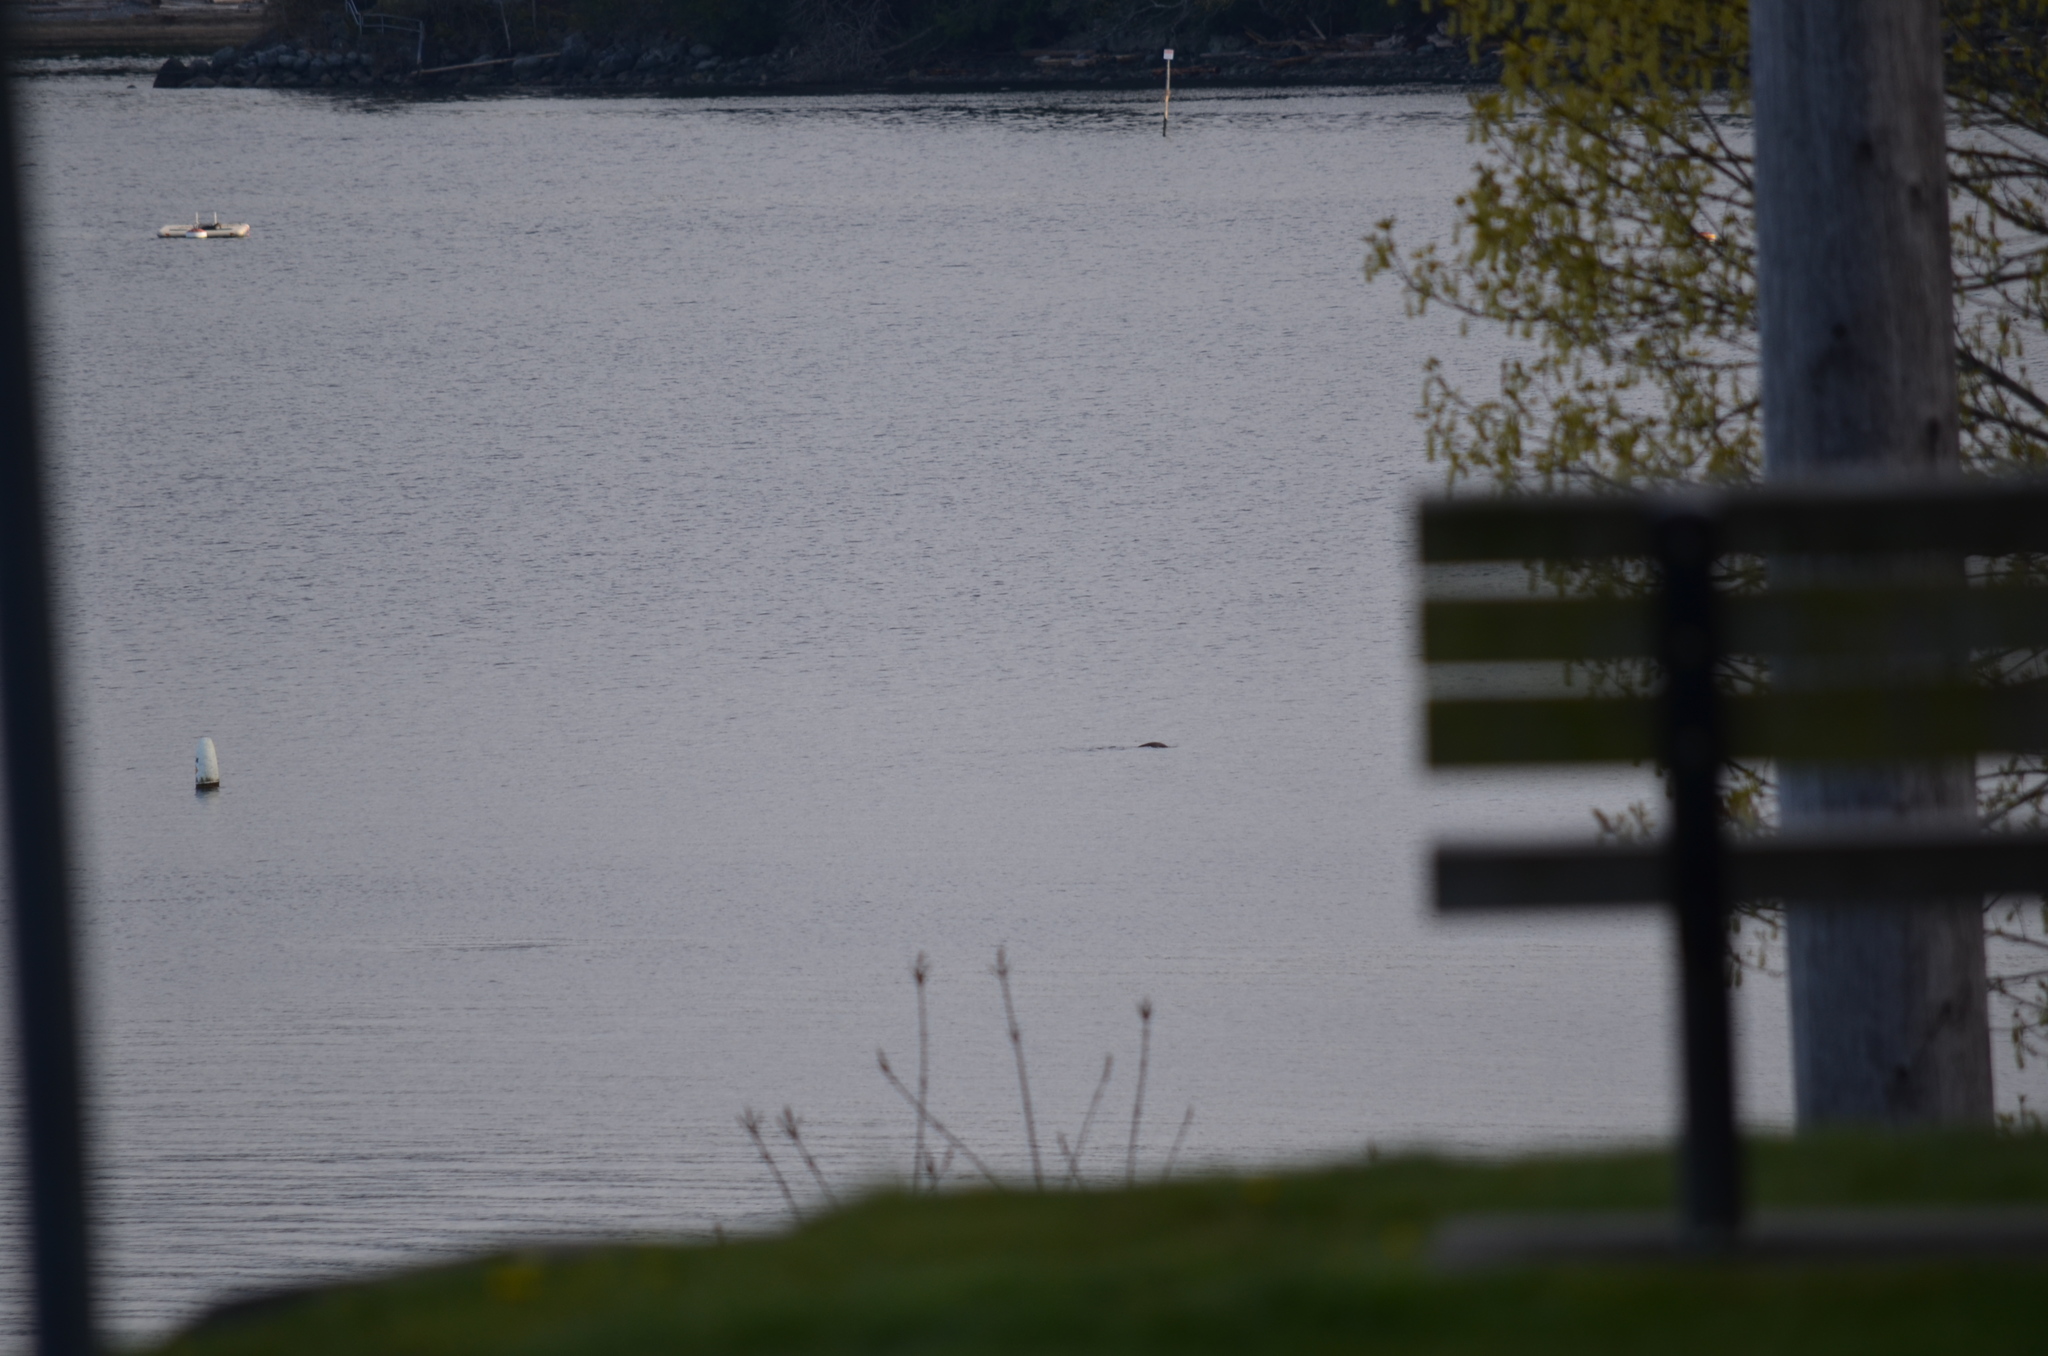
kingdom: Animalia
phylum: Chordata
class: Mammalia
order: Carnivora
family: Mustelidae
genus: Lontra
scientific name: Lontra canadensis
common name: North american river otter
